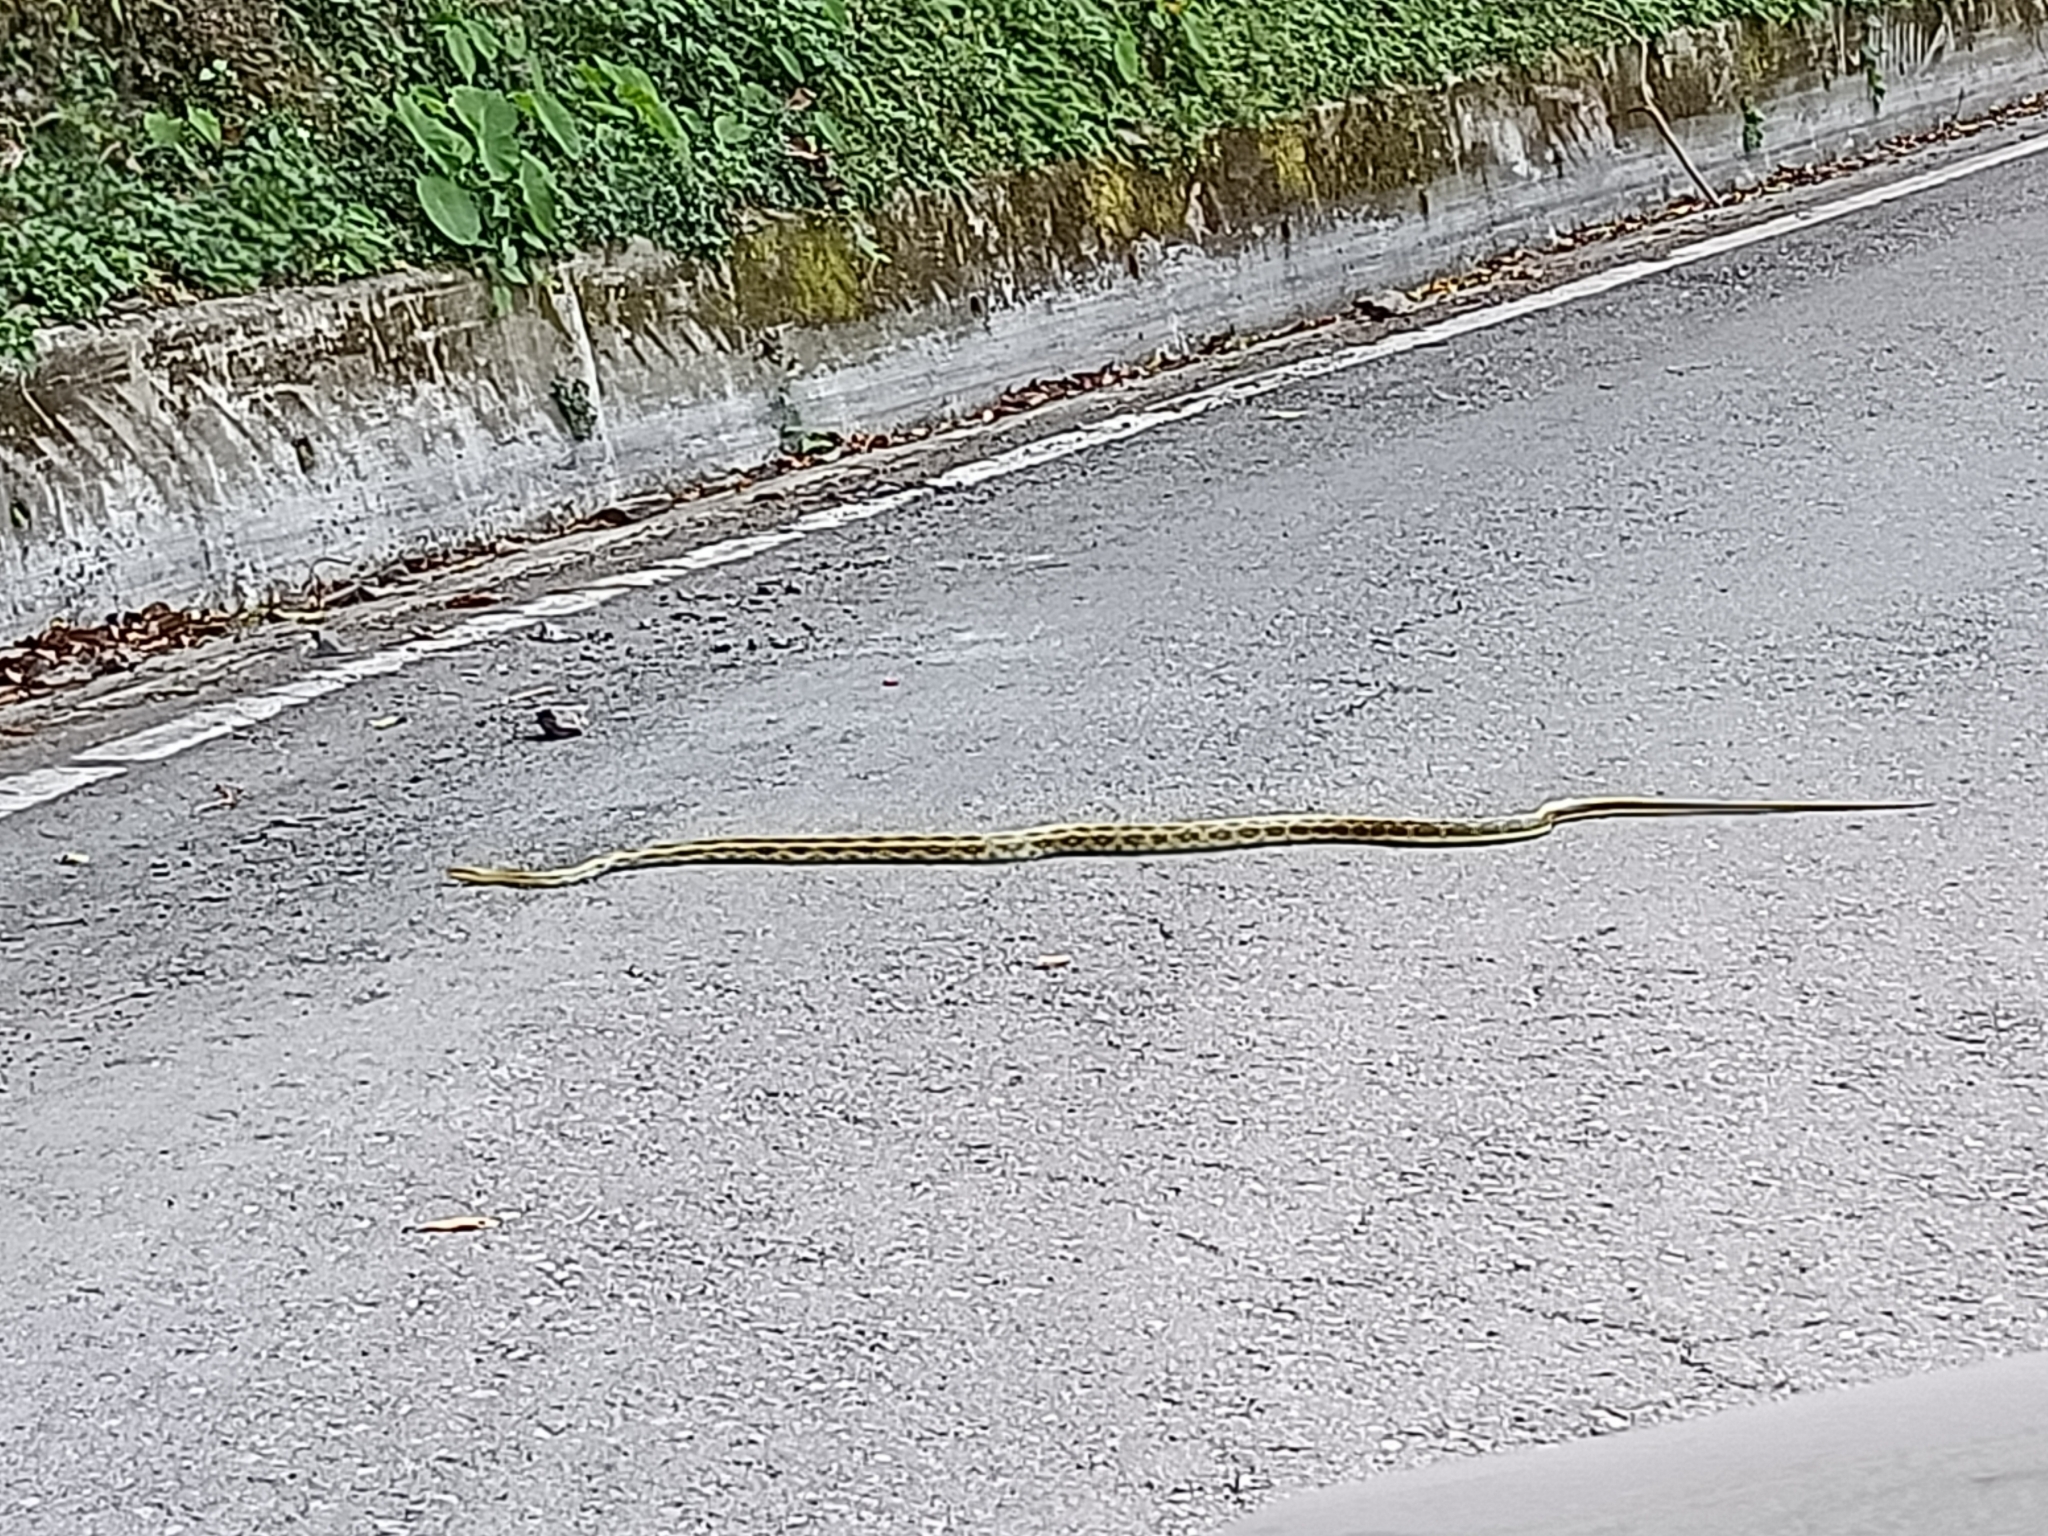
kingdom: Animalia
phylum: Chordata
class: Squamata
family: Colubridae
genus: Elaphe
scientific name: Elaphe taeniura
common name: Beauty snake
